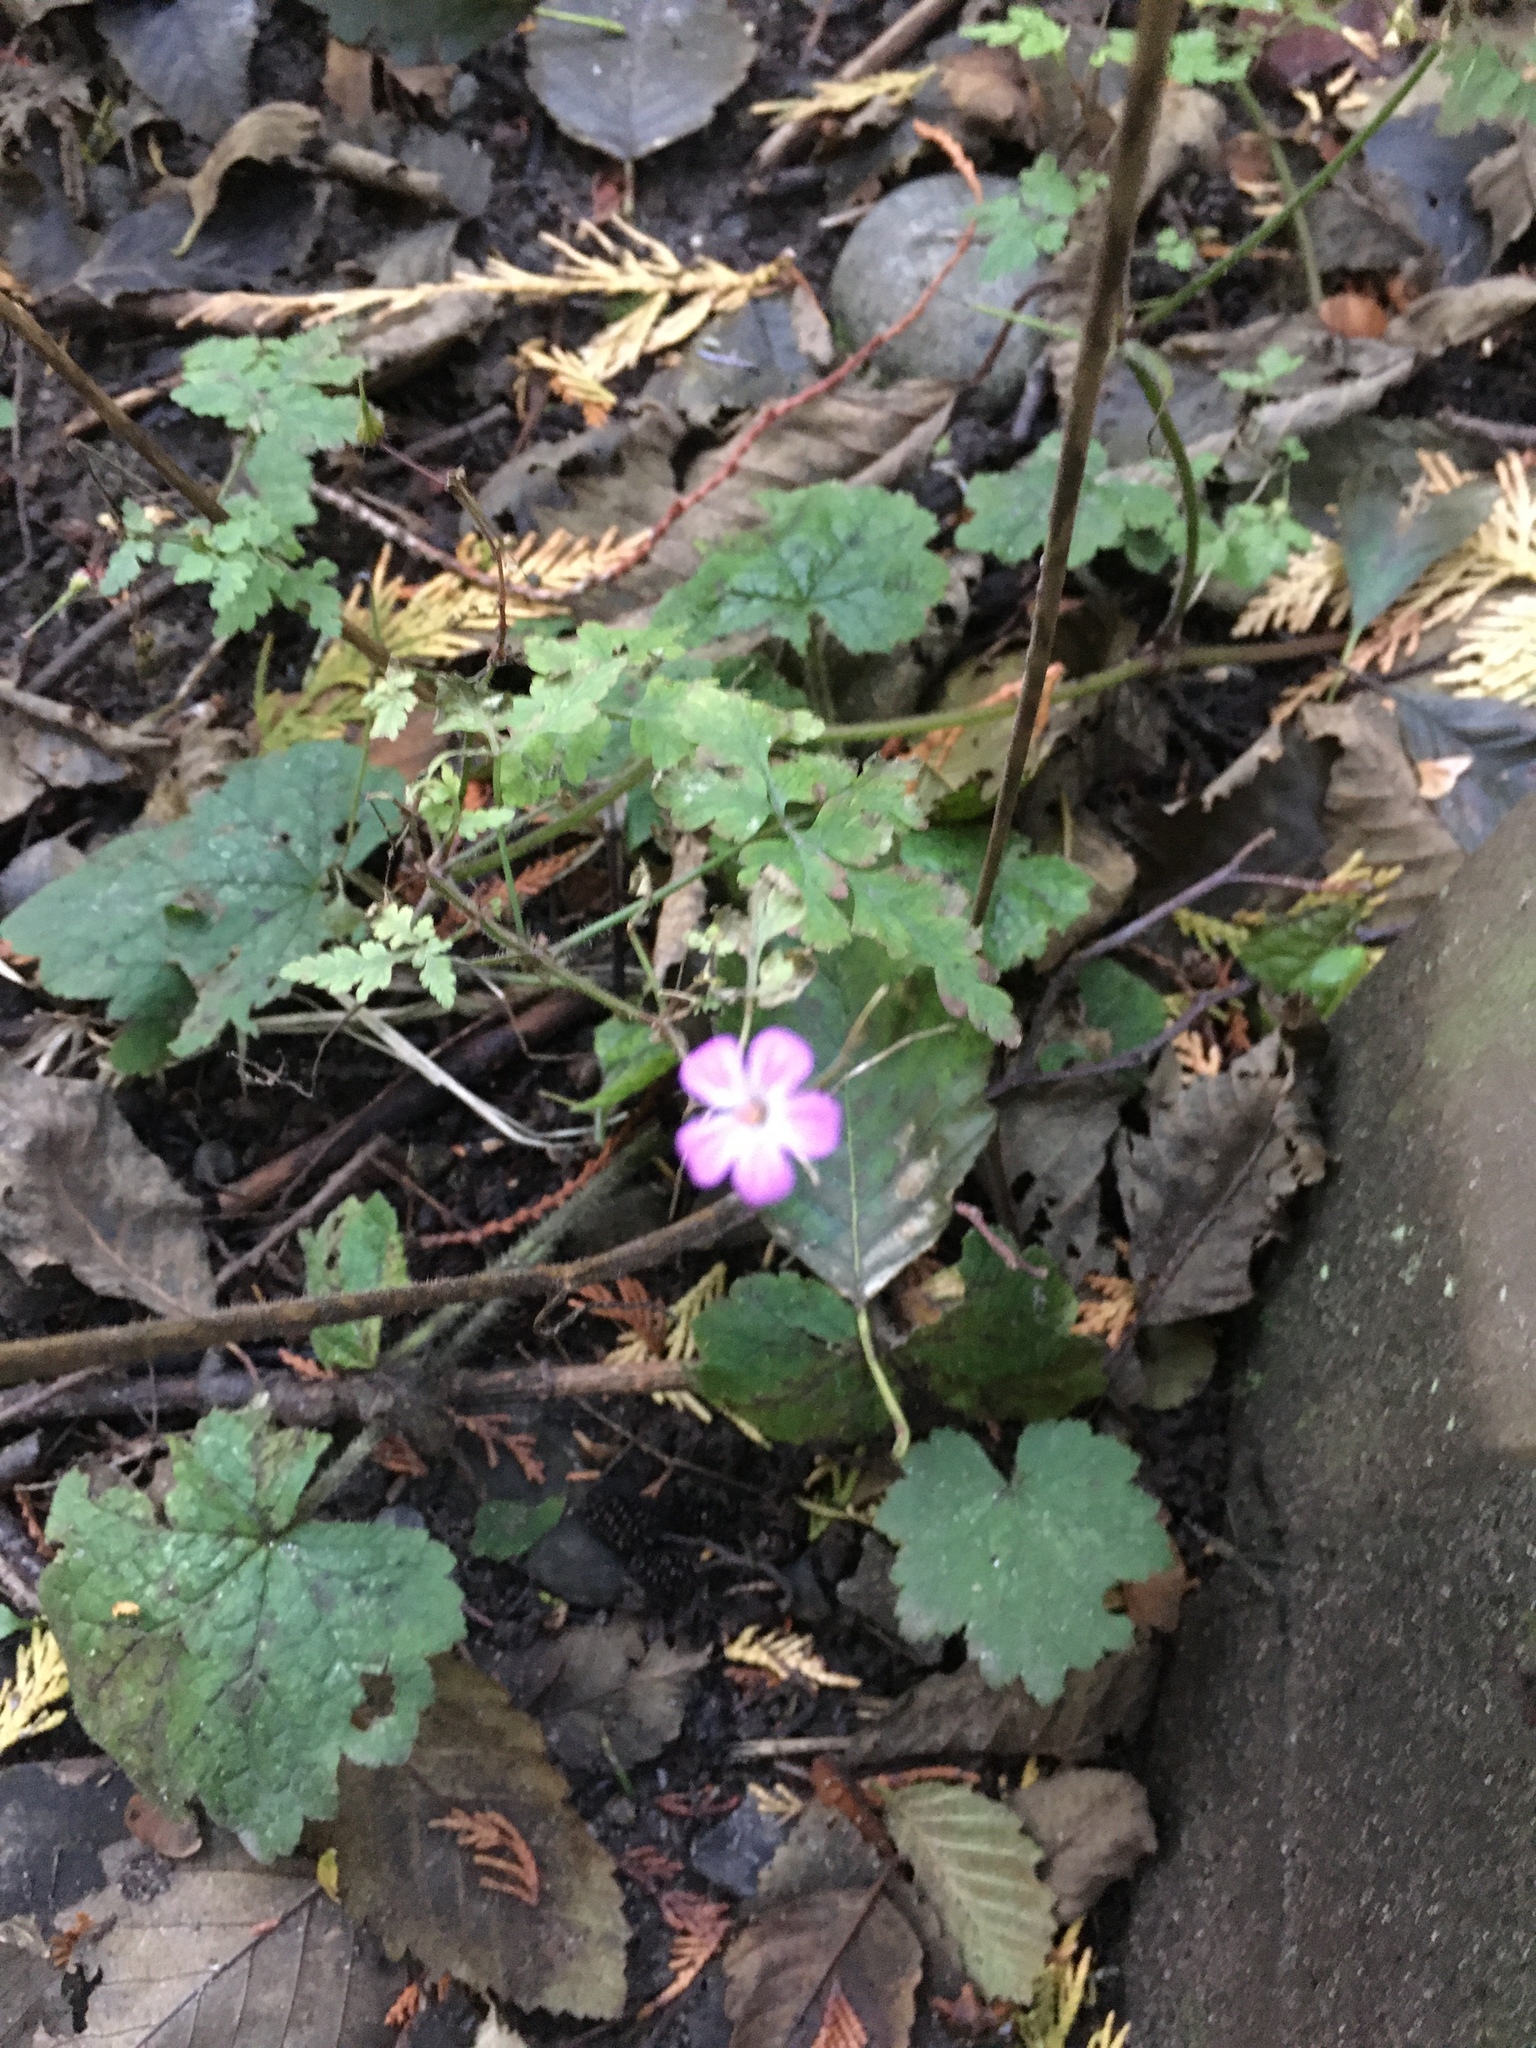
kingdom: Plantae
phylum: Tracheophyta
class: Magnoliopsida
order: Geraniales
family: Geraniaceae
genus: Geranium
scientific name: Geranium robertianum
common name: Herb-robert
